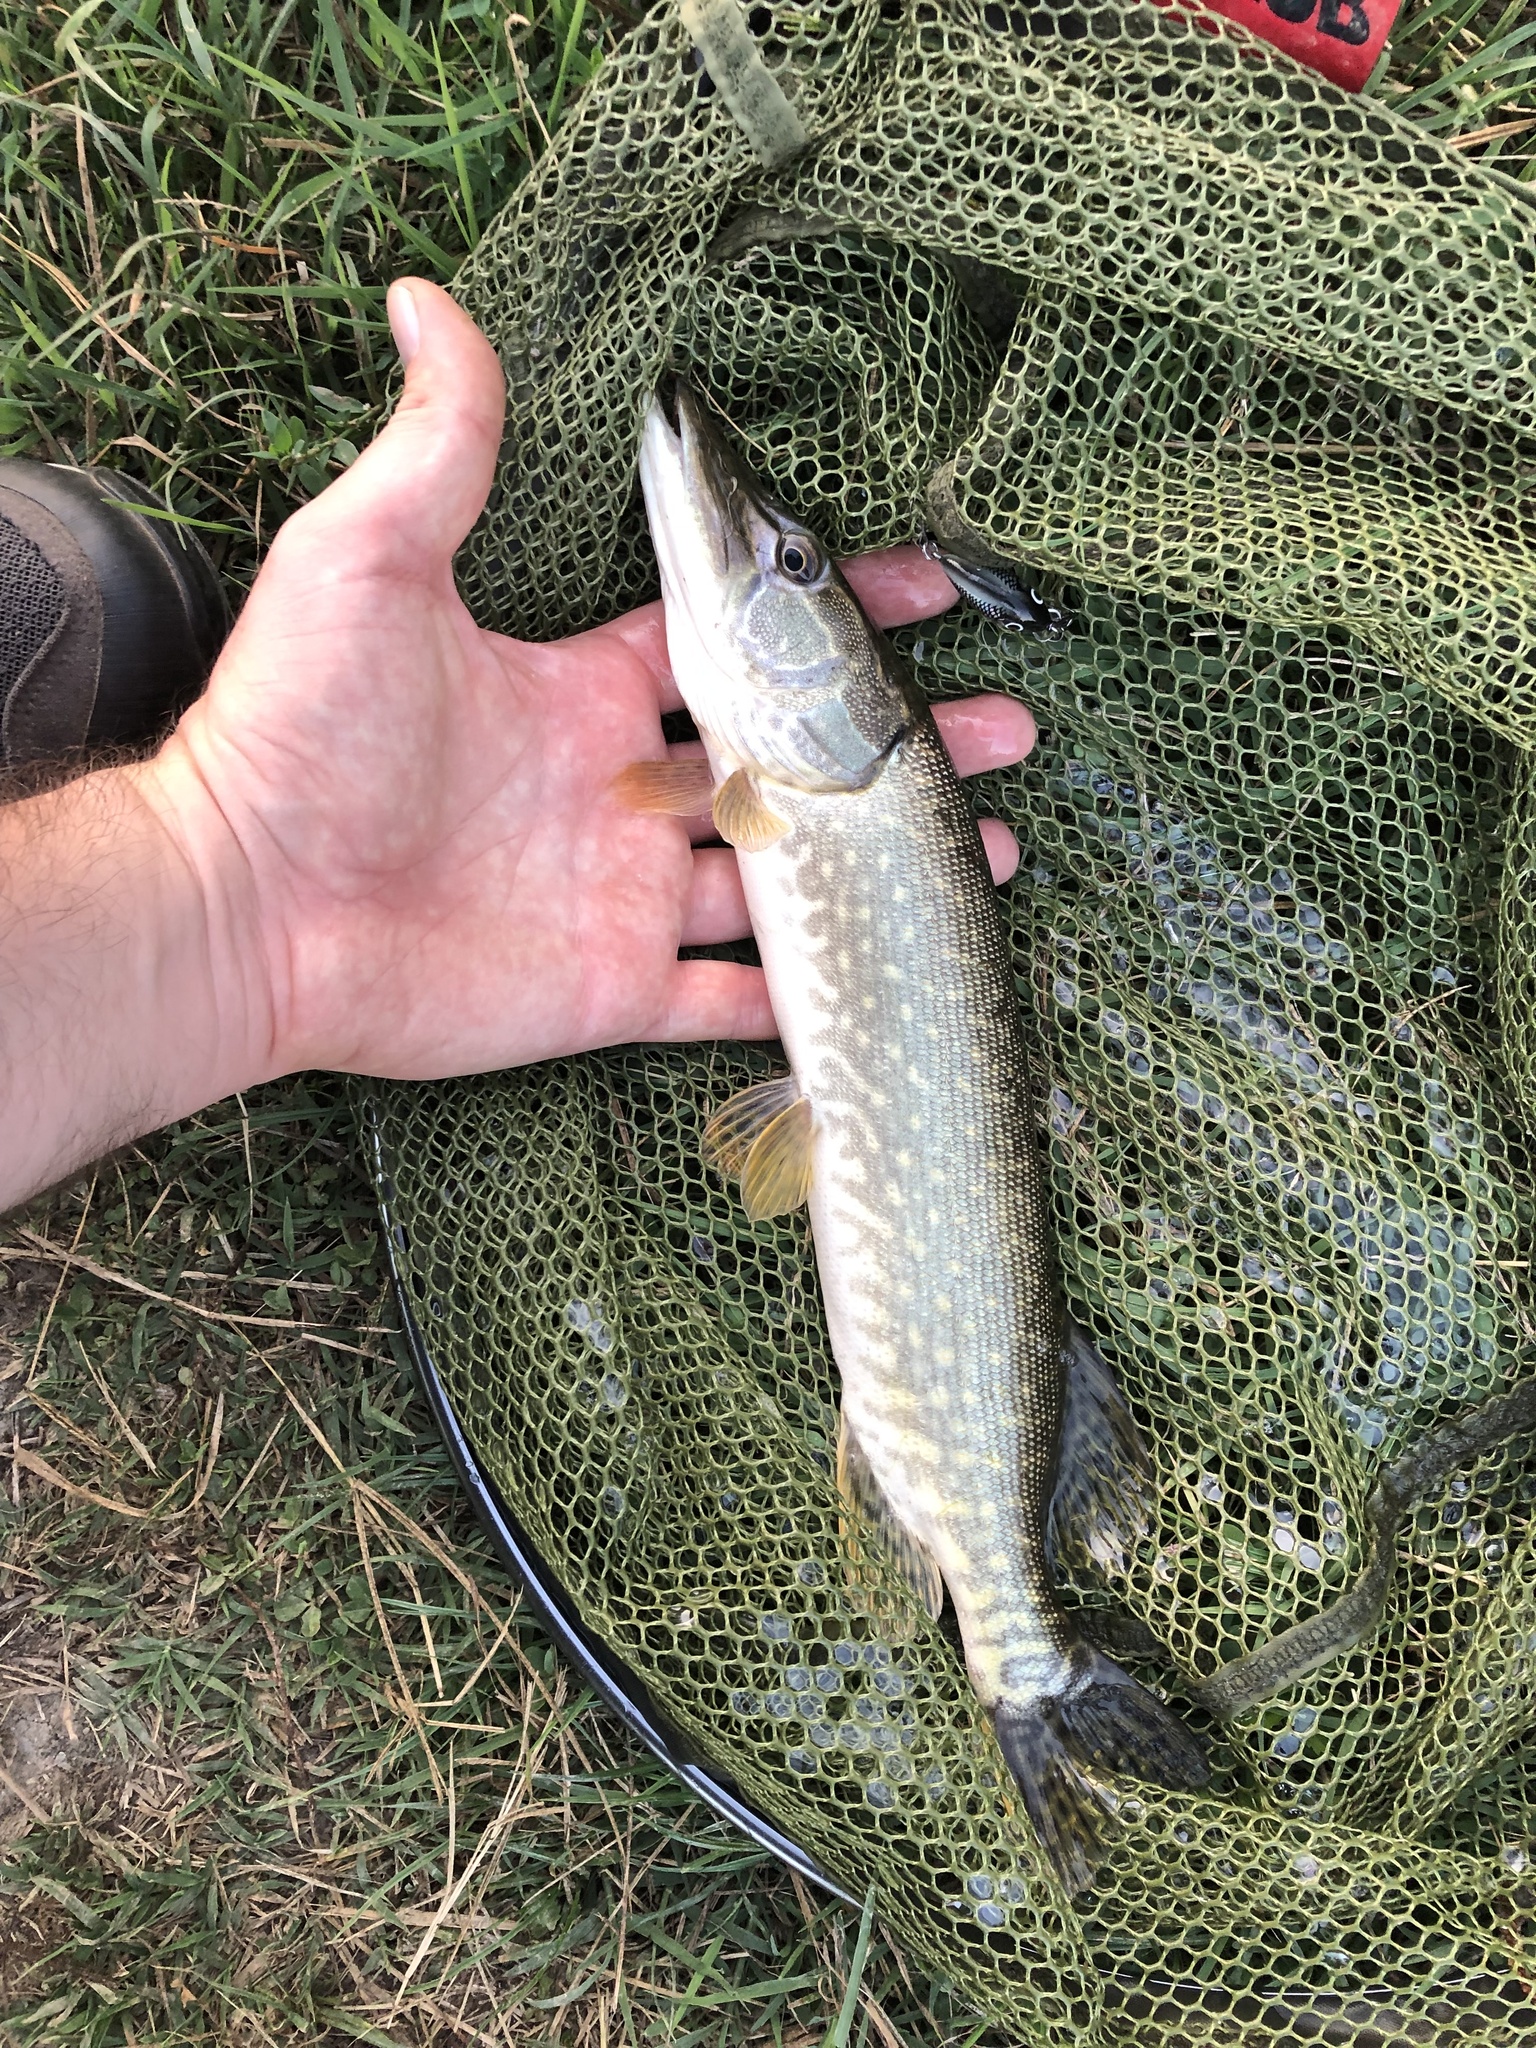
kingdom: Animalia
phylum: Chordata
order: Esociformes
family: Esocidae
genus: Esox
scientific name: Esox lucius
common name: Northern pike
